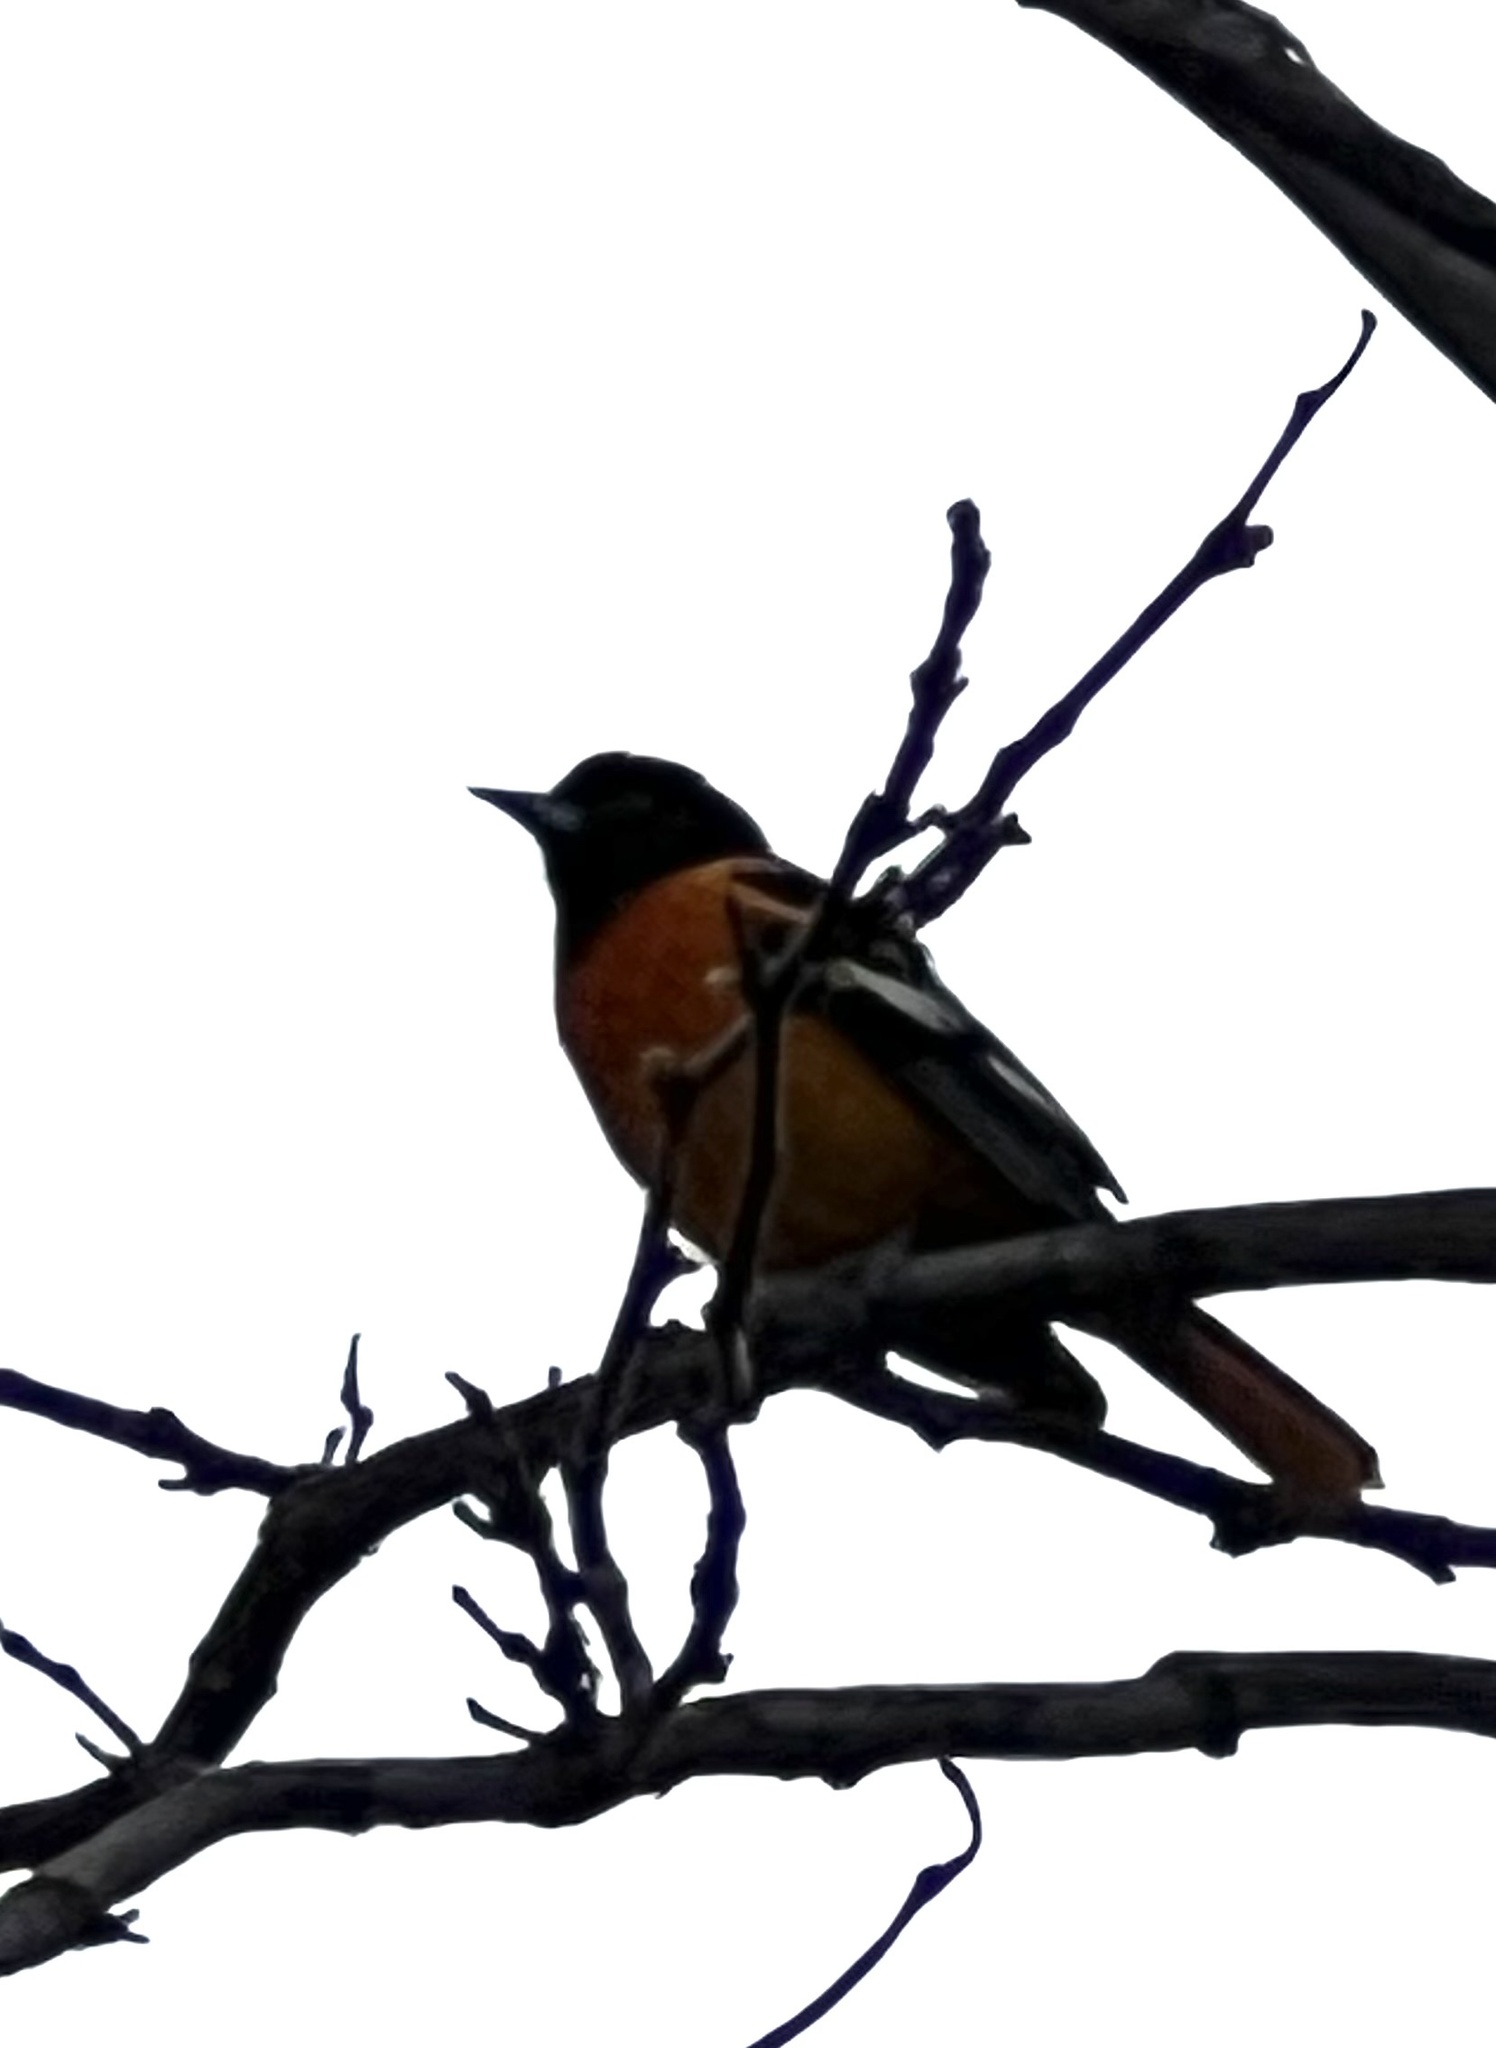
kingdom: Animalia
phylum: Chordata
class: Aves
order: Passeriformes
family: Icteridae
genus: Icterus
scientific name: Icterus galbula
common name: Baltimore oriole
